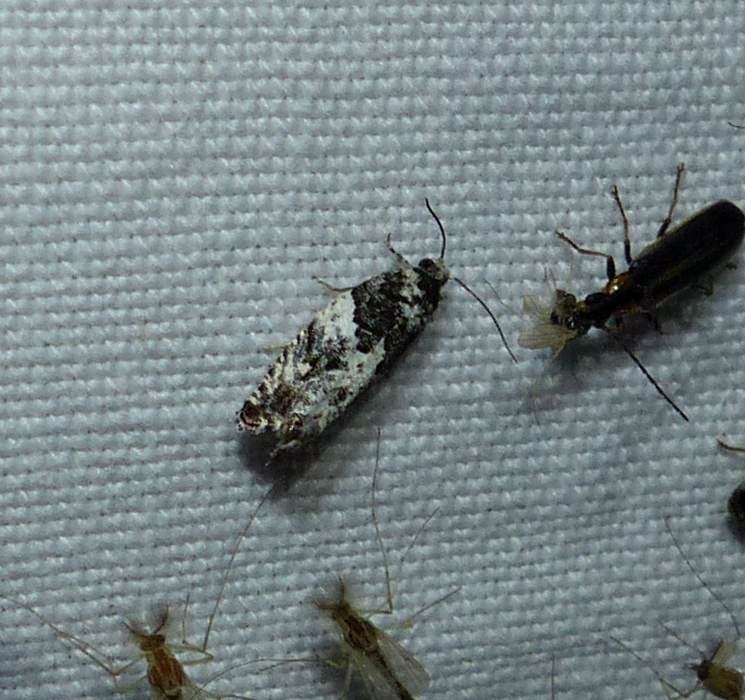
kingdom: Animalia
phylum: Arthropoda
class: Insecta
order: Lepidoptera
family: Tortricidae
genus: Gypsonoma
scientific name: Gypsonoma adjuncta
